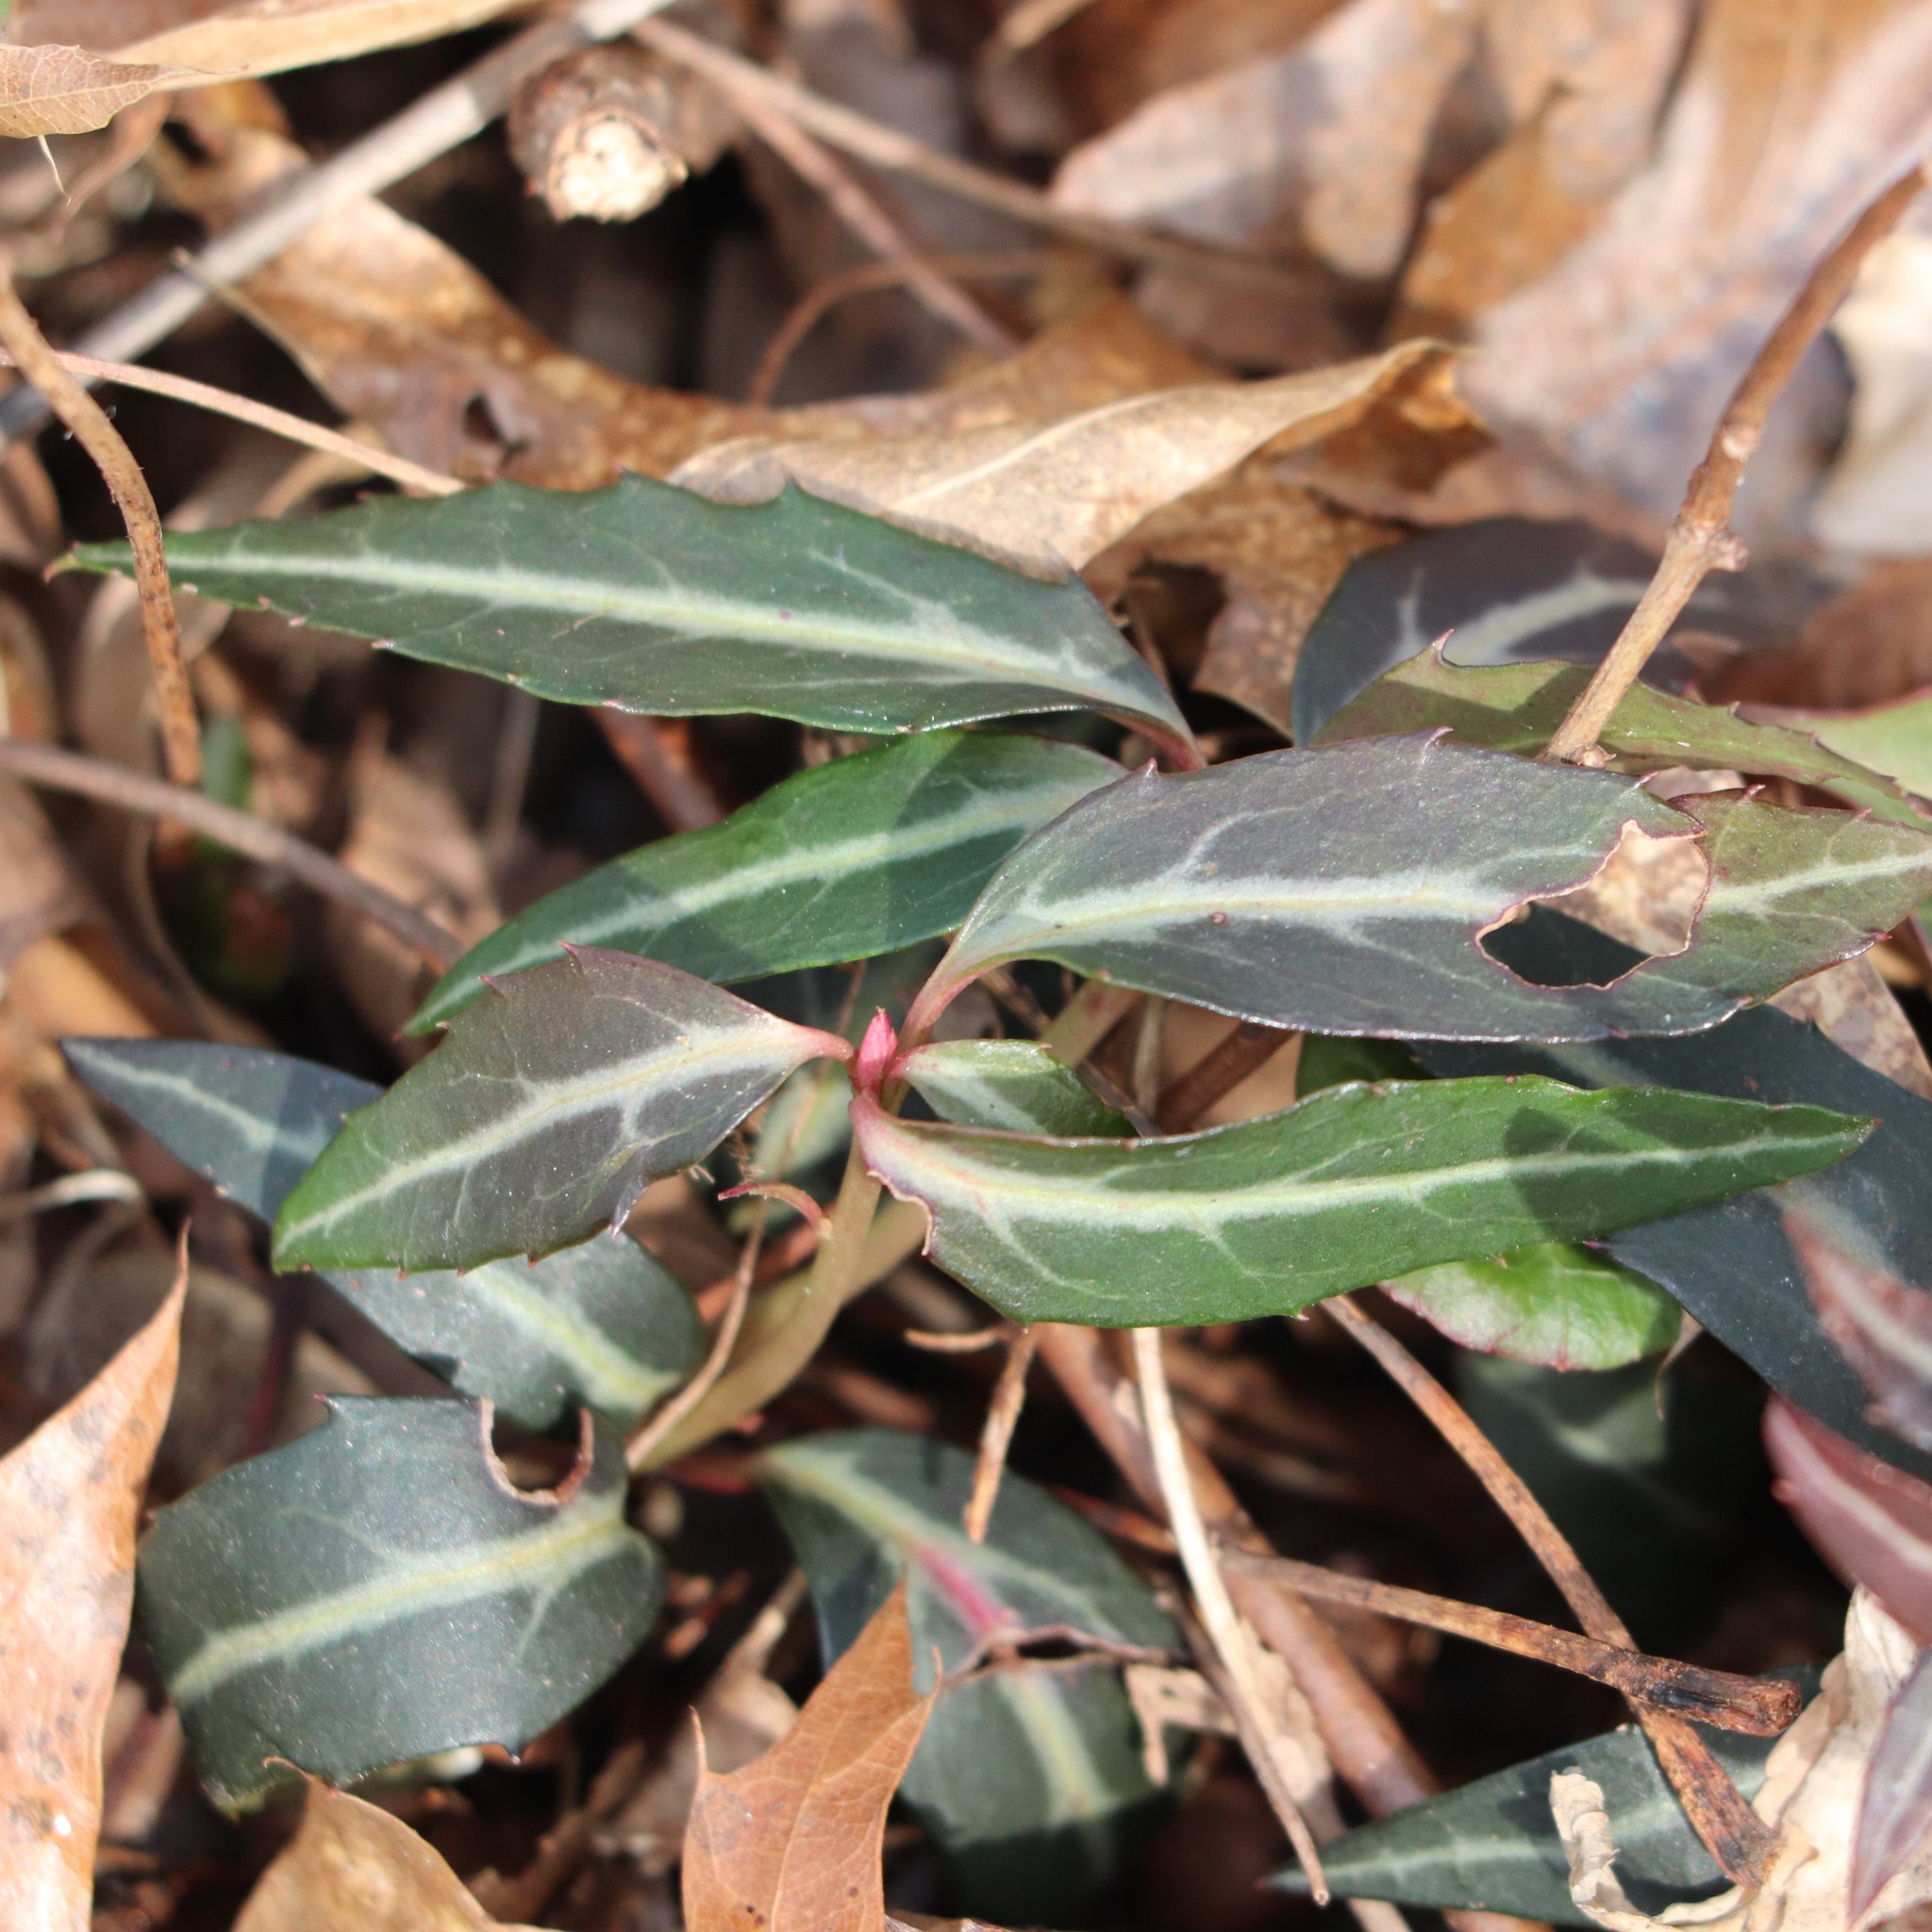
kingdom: Plantae
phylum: Tracheophyta
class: Magnoliopsida
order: Ericales
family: Ericaceae
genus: Chimaphila
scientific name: Chimaphila maculata
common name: Spotted pipsissewa
